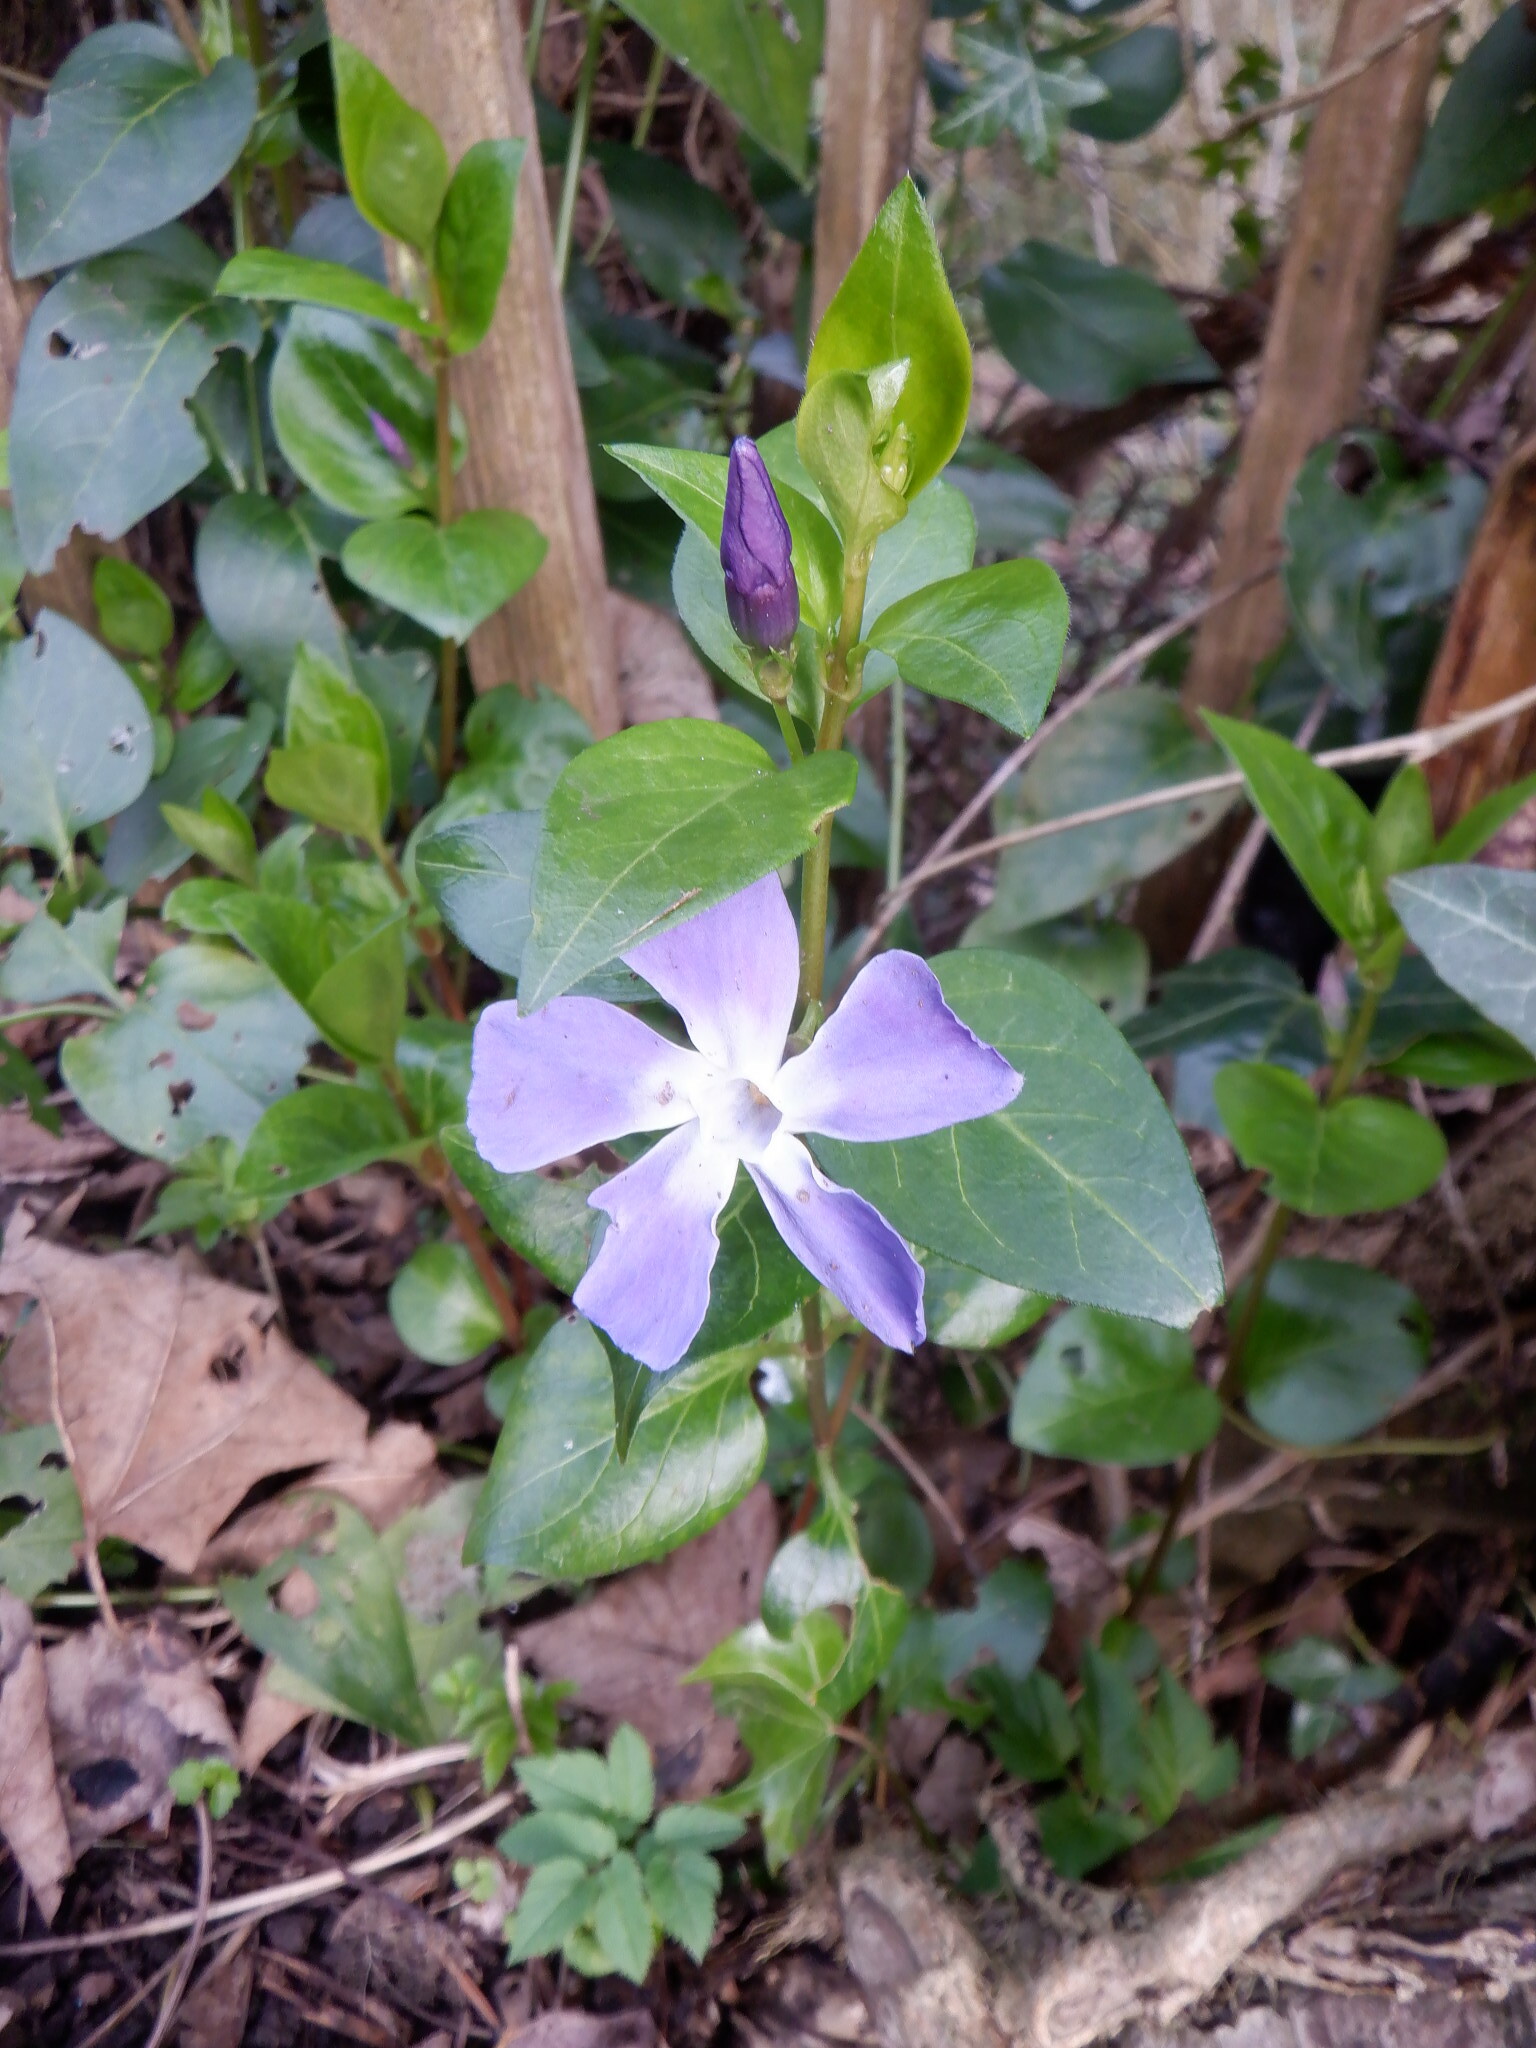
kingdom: Plantae
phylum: Tracheophyta
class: Magnoliopsida
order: Gentianales
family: Apocynaceae
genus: Vinca
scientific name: Vinca major
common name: Greater periwinkle
